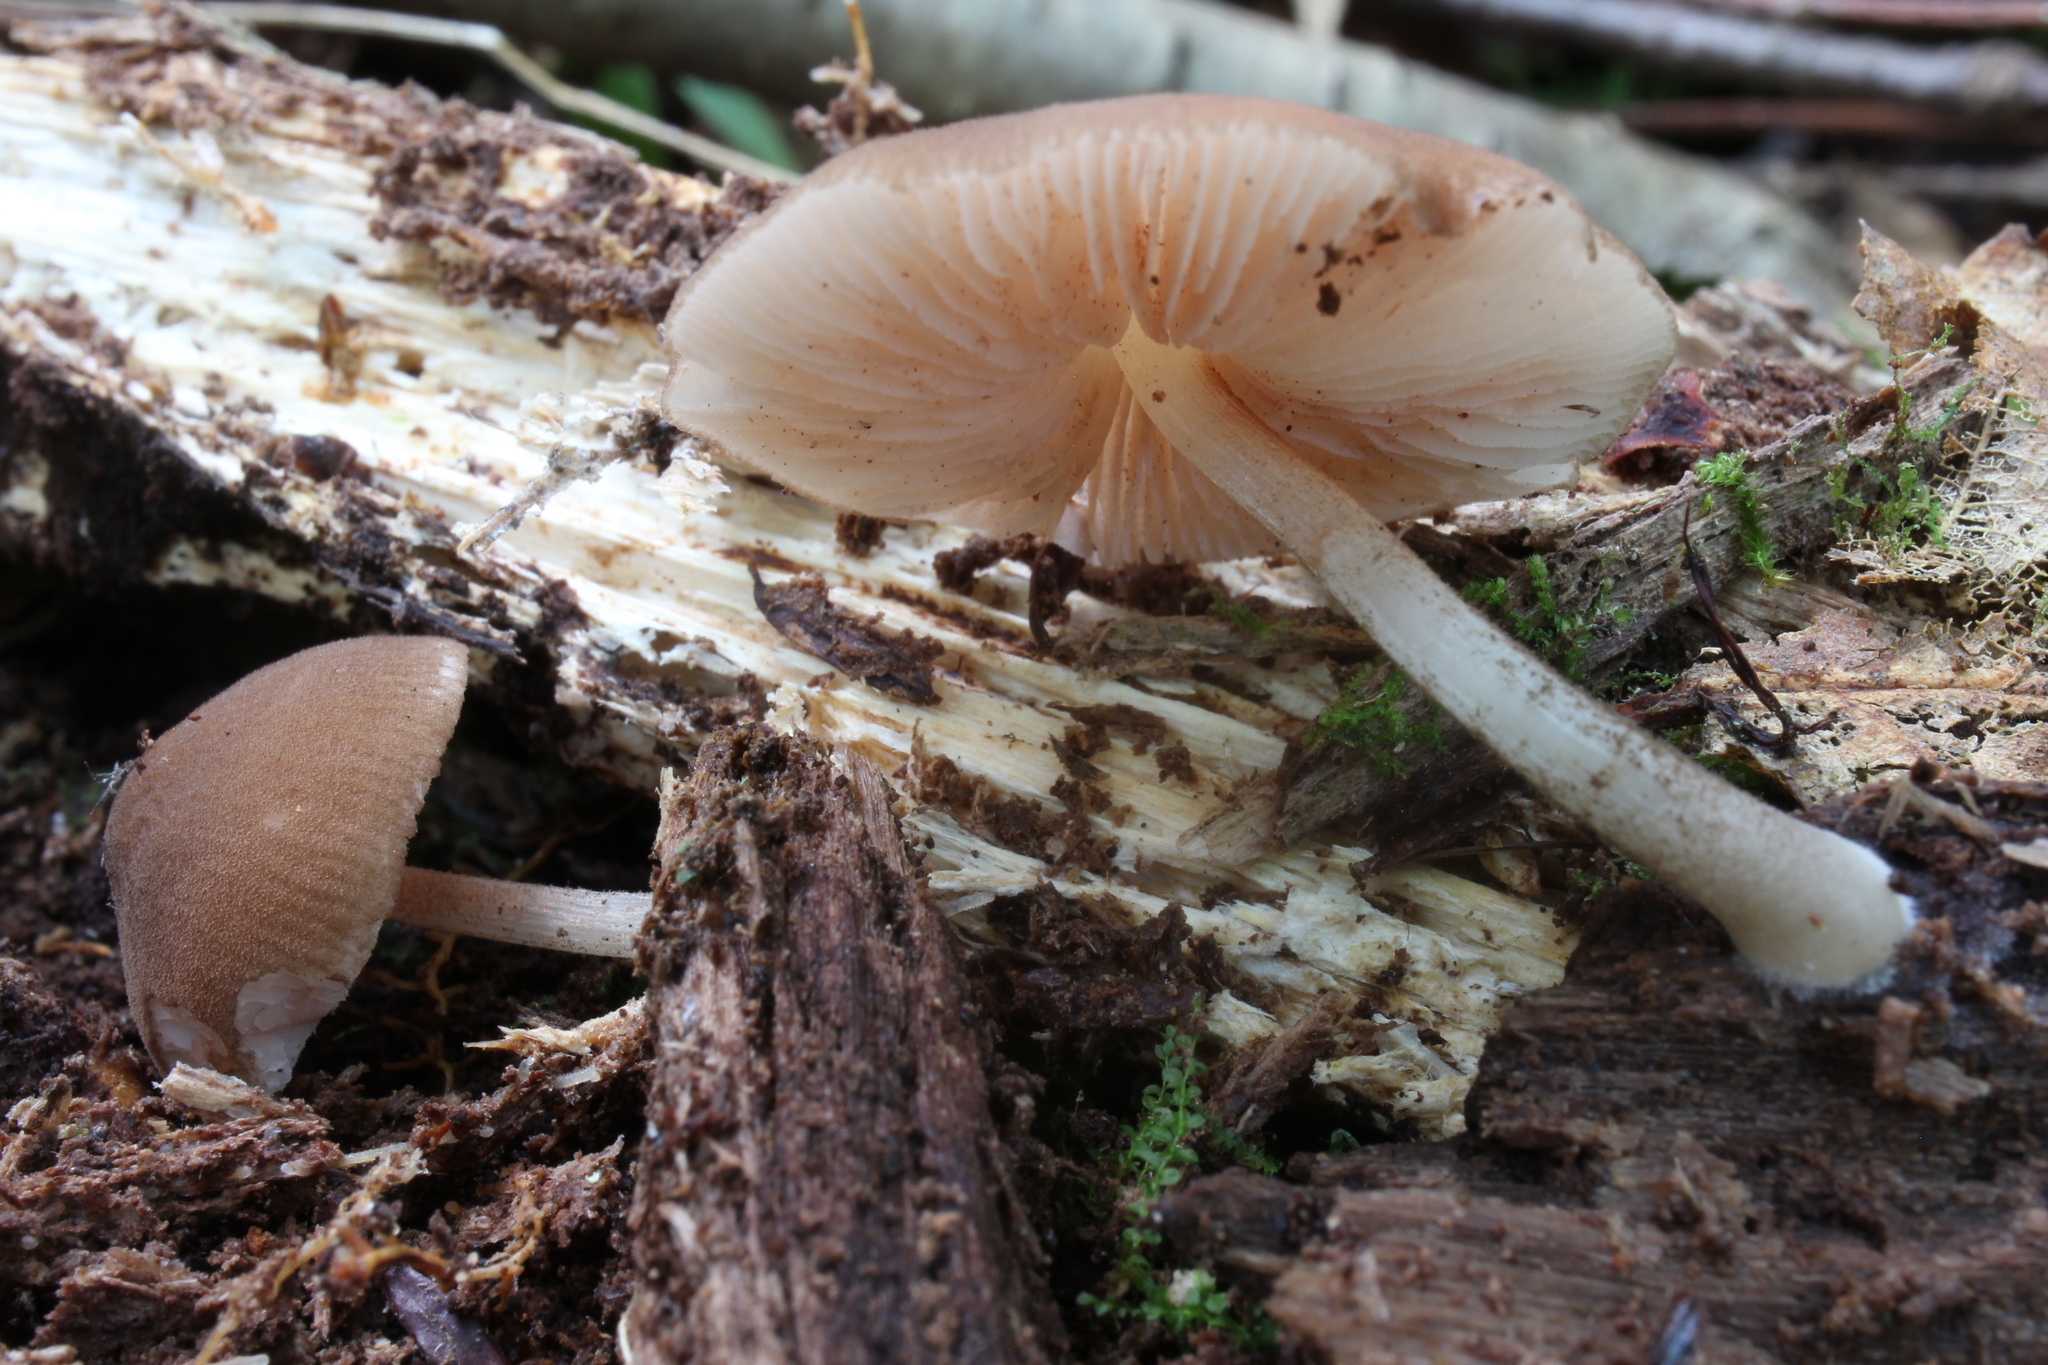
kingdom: Fungi
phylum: Basidiomycota
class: Agaricomycetes
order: Agaricales
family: Pluteaceae
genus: Pluteus
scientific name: Pluteus longistriatus
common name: Pleated pluteus
